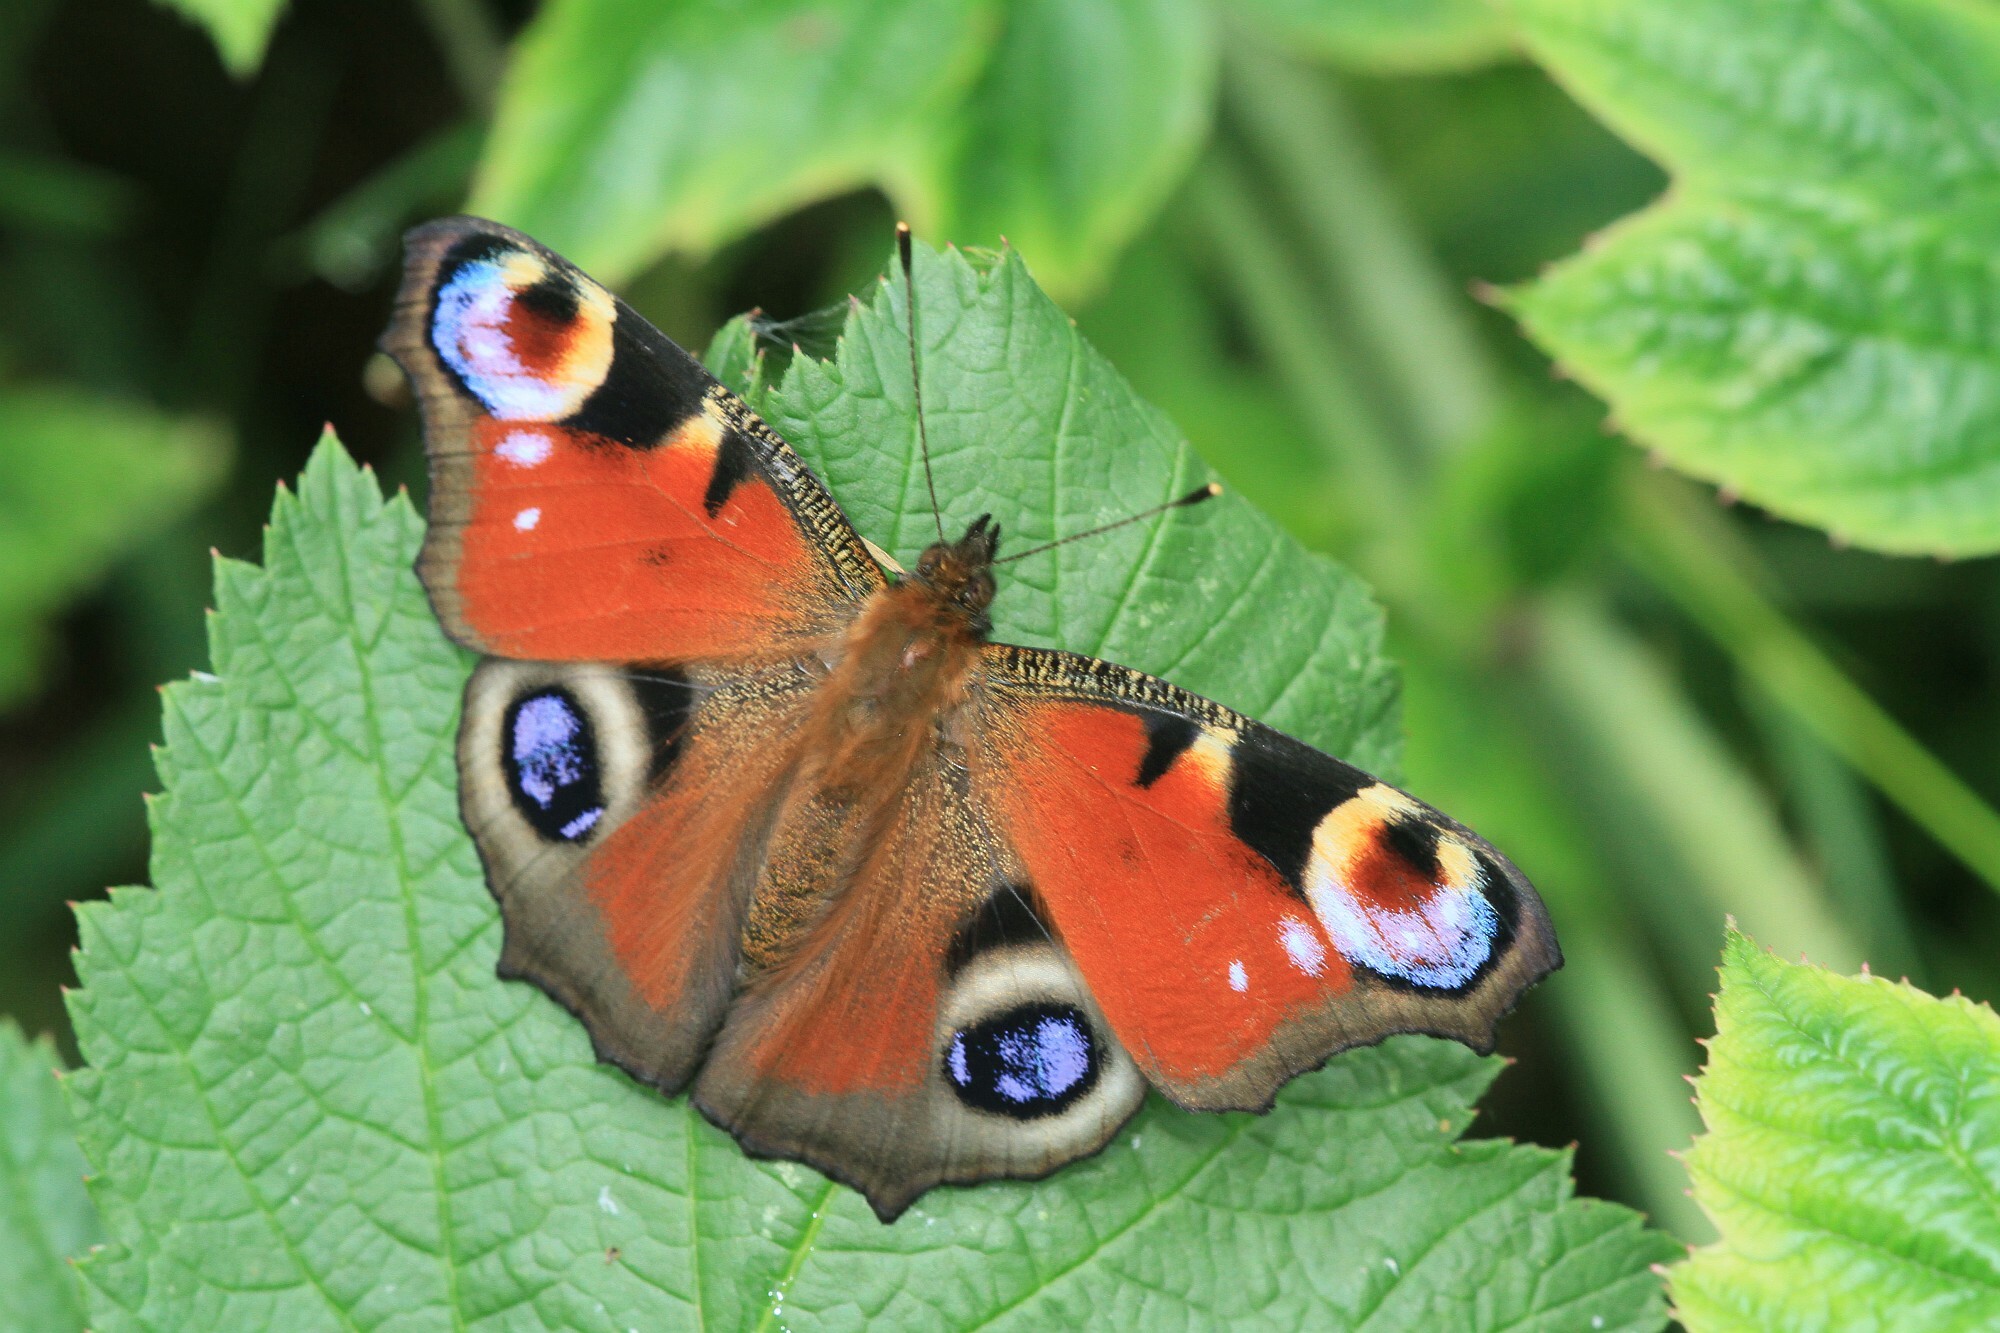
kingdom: Animalia
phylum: Arthropoda
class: Insecta
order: Lepidoptera
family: Nymphalidae
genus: Aglais
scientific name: Aglais io
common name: Peacock
